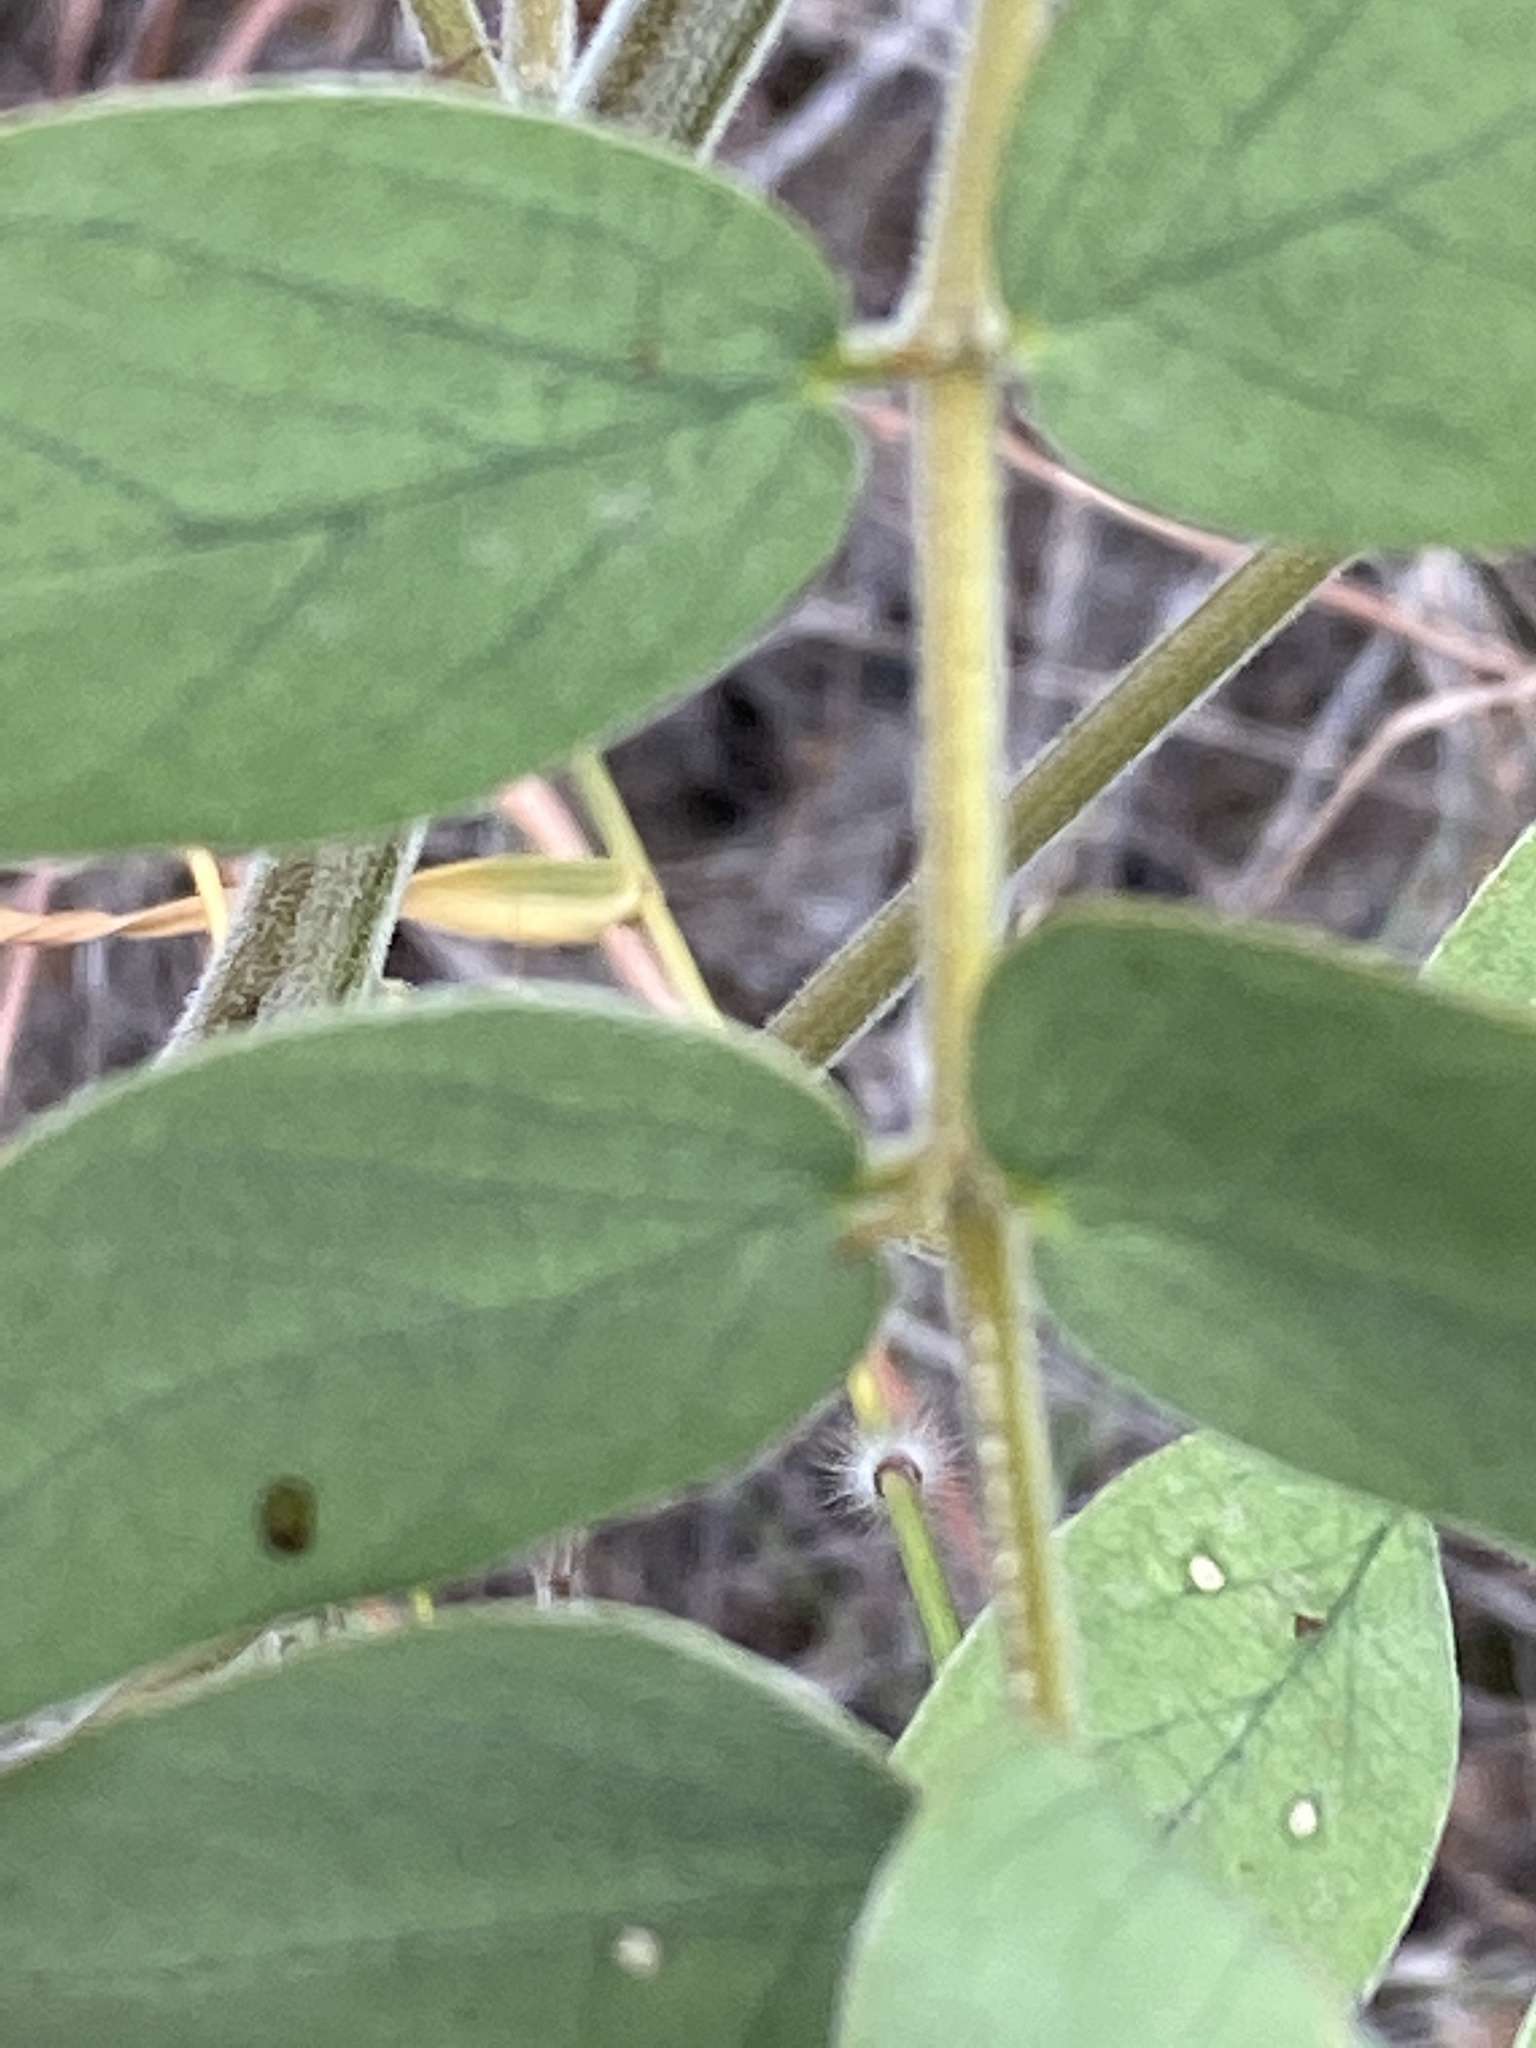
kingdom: Plantae
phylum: Tracheophyta
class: Magnoliopsida
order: Fabales
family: Fabaceae
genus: Senna
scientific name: Senna lindheimeriana
